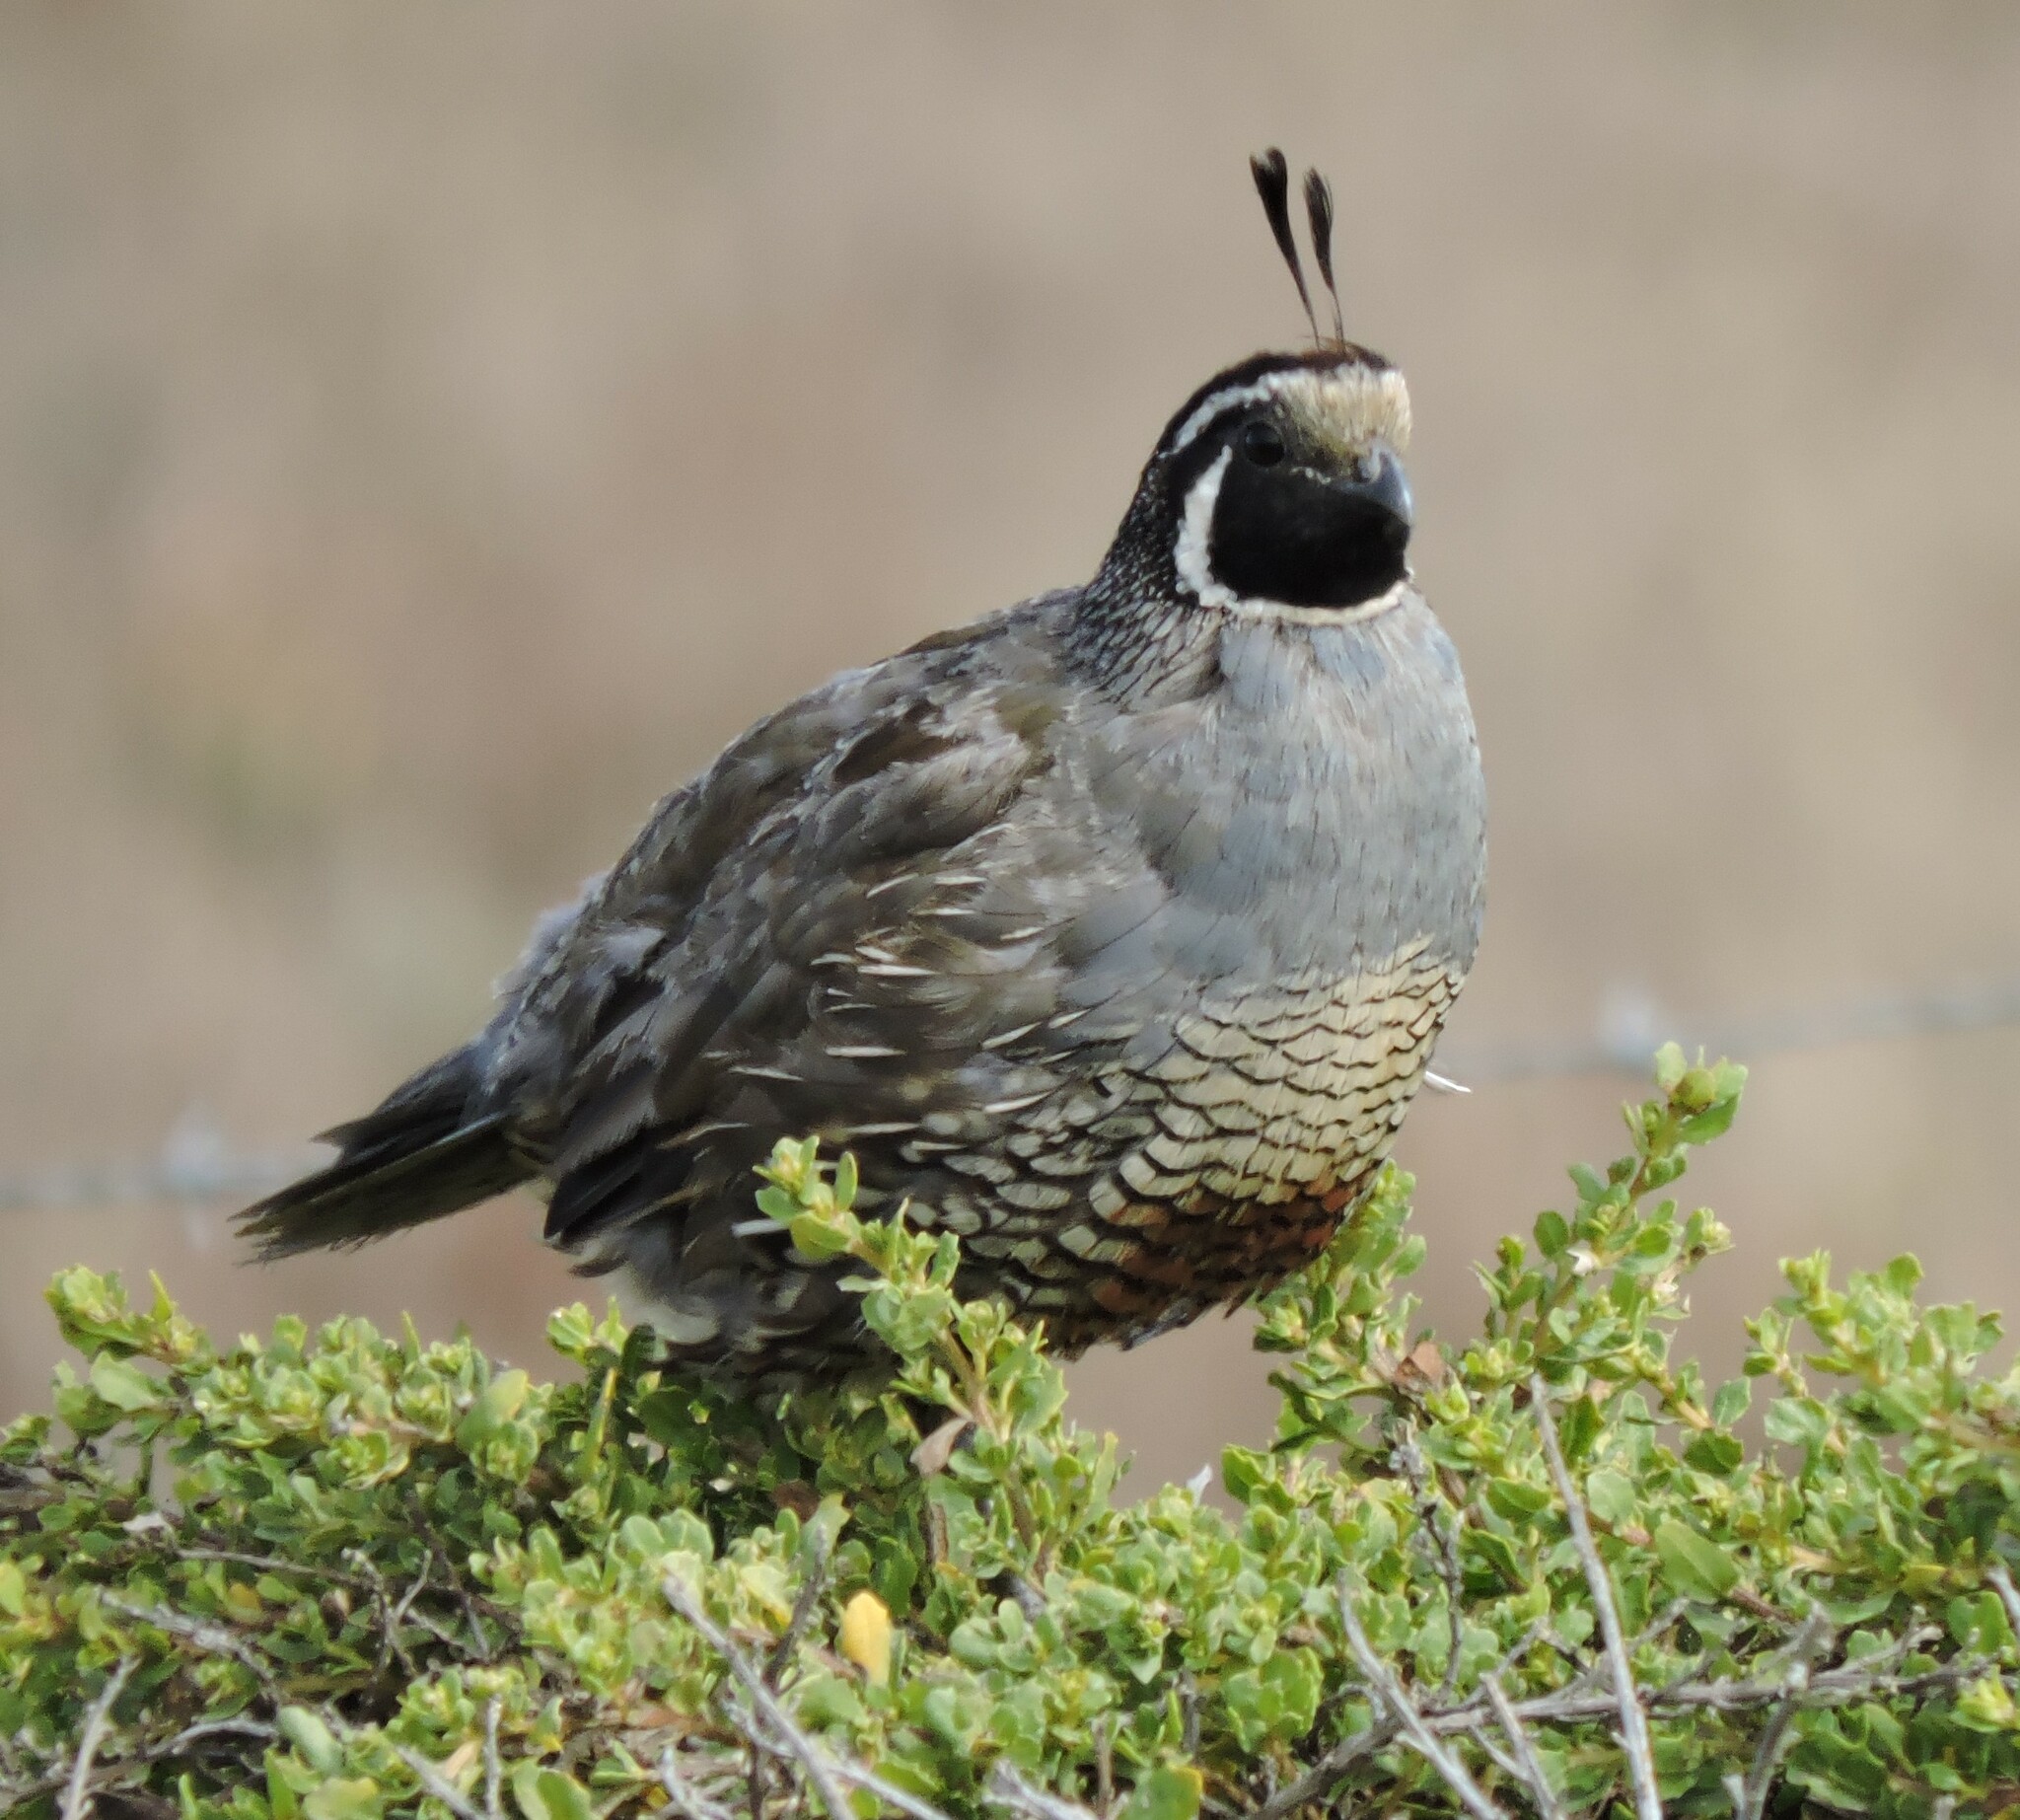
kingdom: Animalia
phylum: Chordata
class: Aves
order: Galliformes
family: Odontophoridae
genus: Callipepla
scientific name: Callipepla californica
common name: California quail
